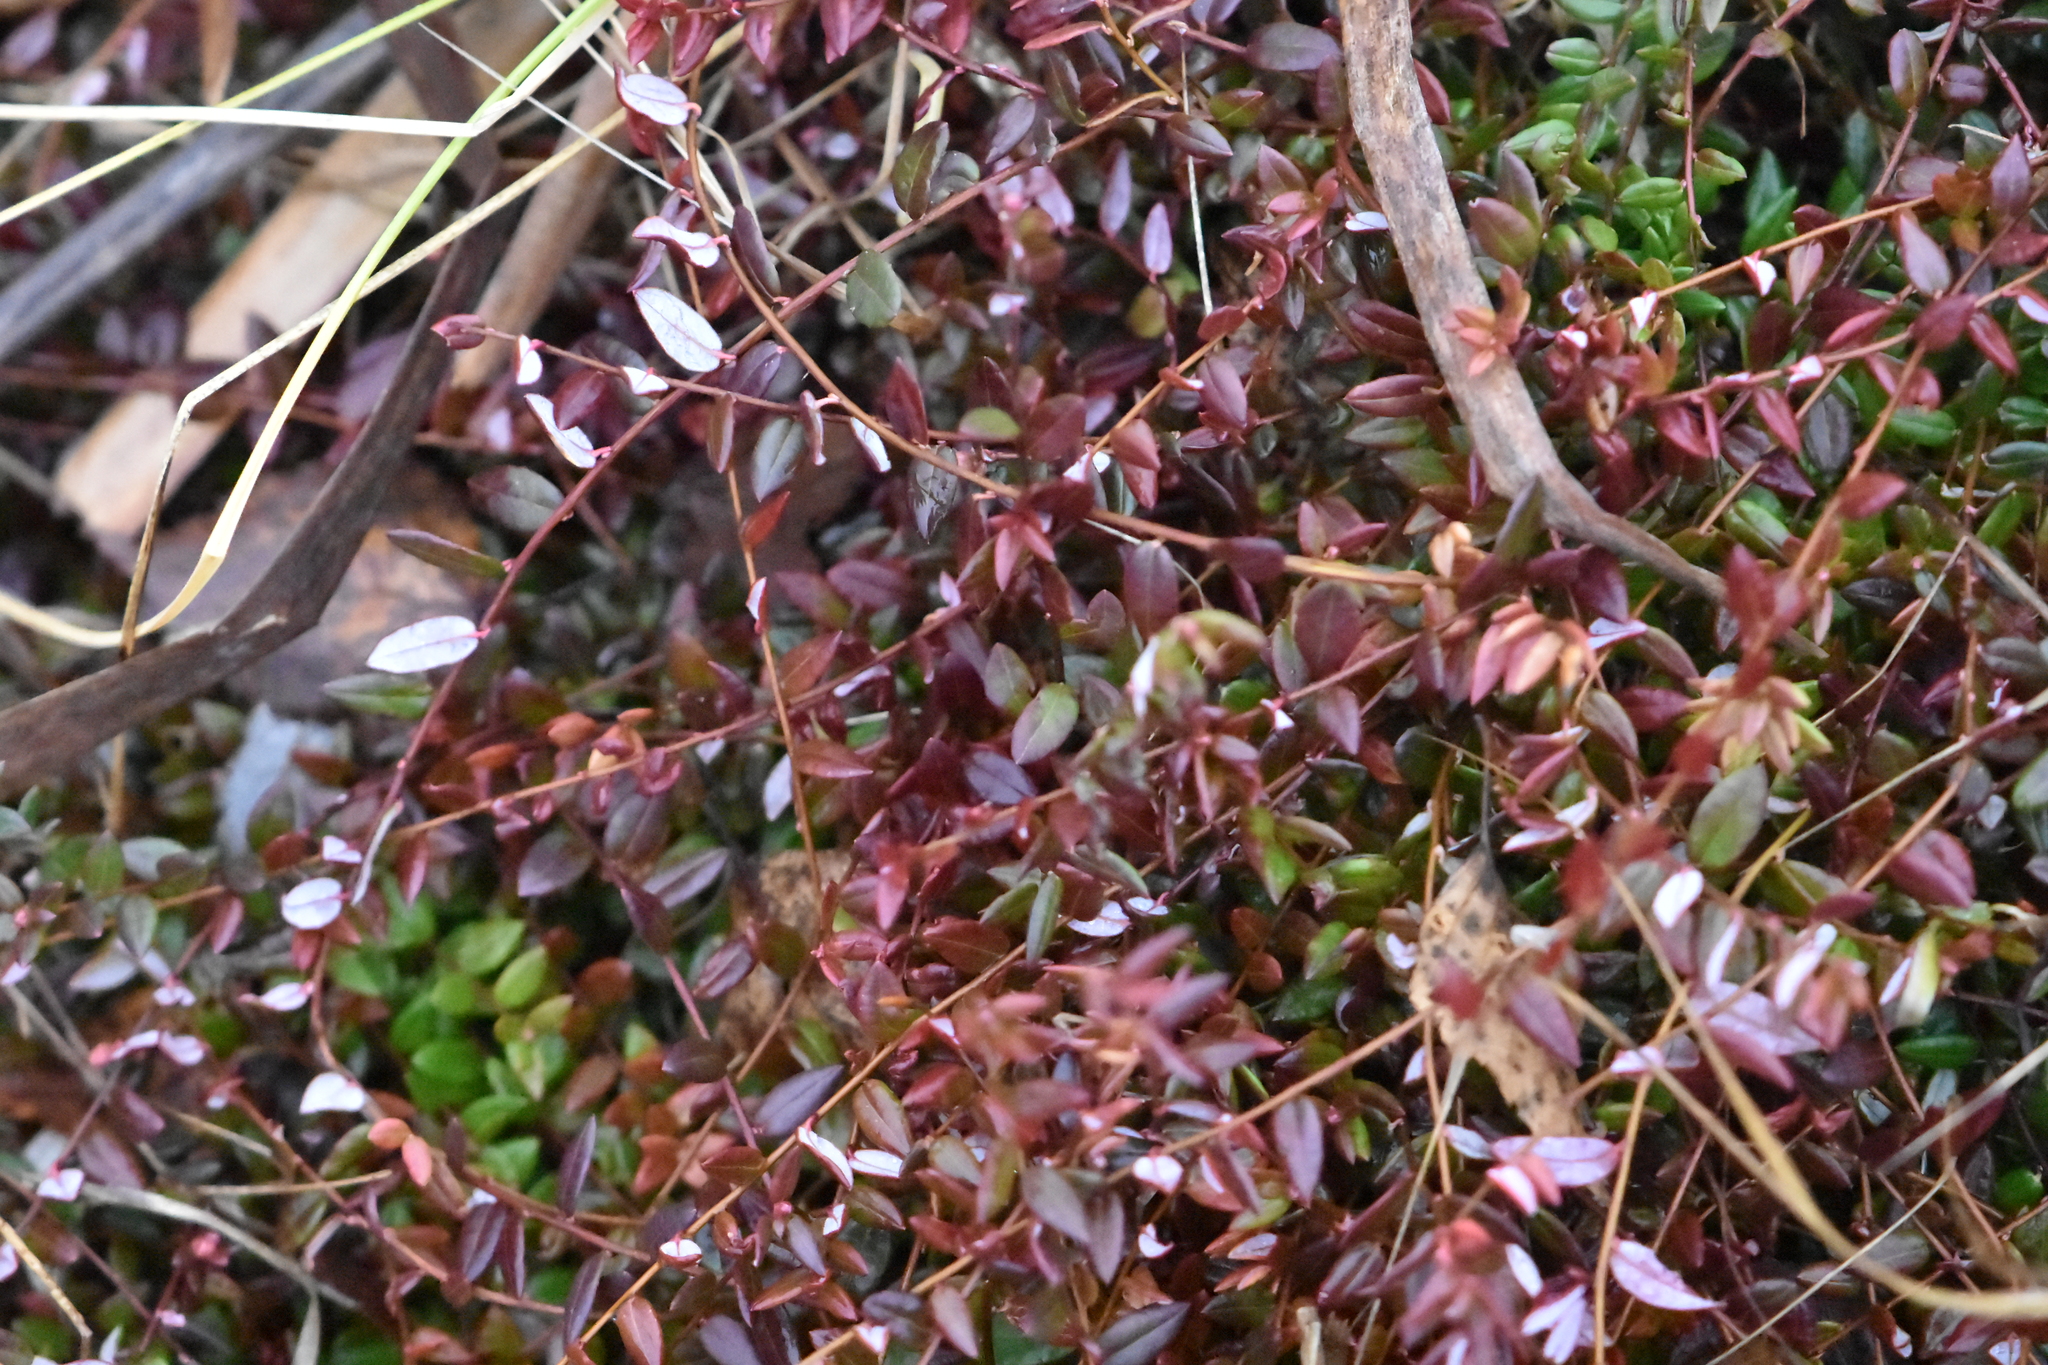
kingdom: Plantae
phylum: Tracheophyta
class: Magnoliopsida
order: Ericales
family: Ericaceae
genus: Vaccinium
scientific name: Vaccinium oxycoccos
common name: Cranberry
